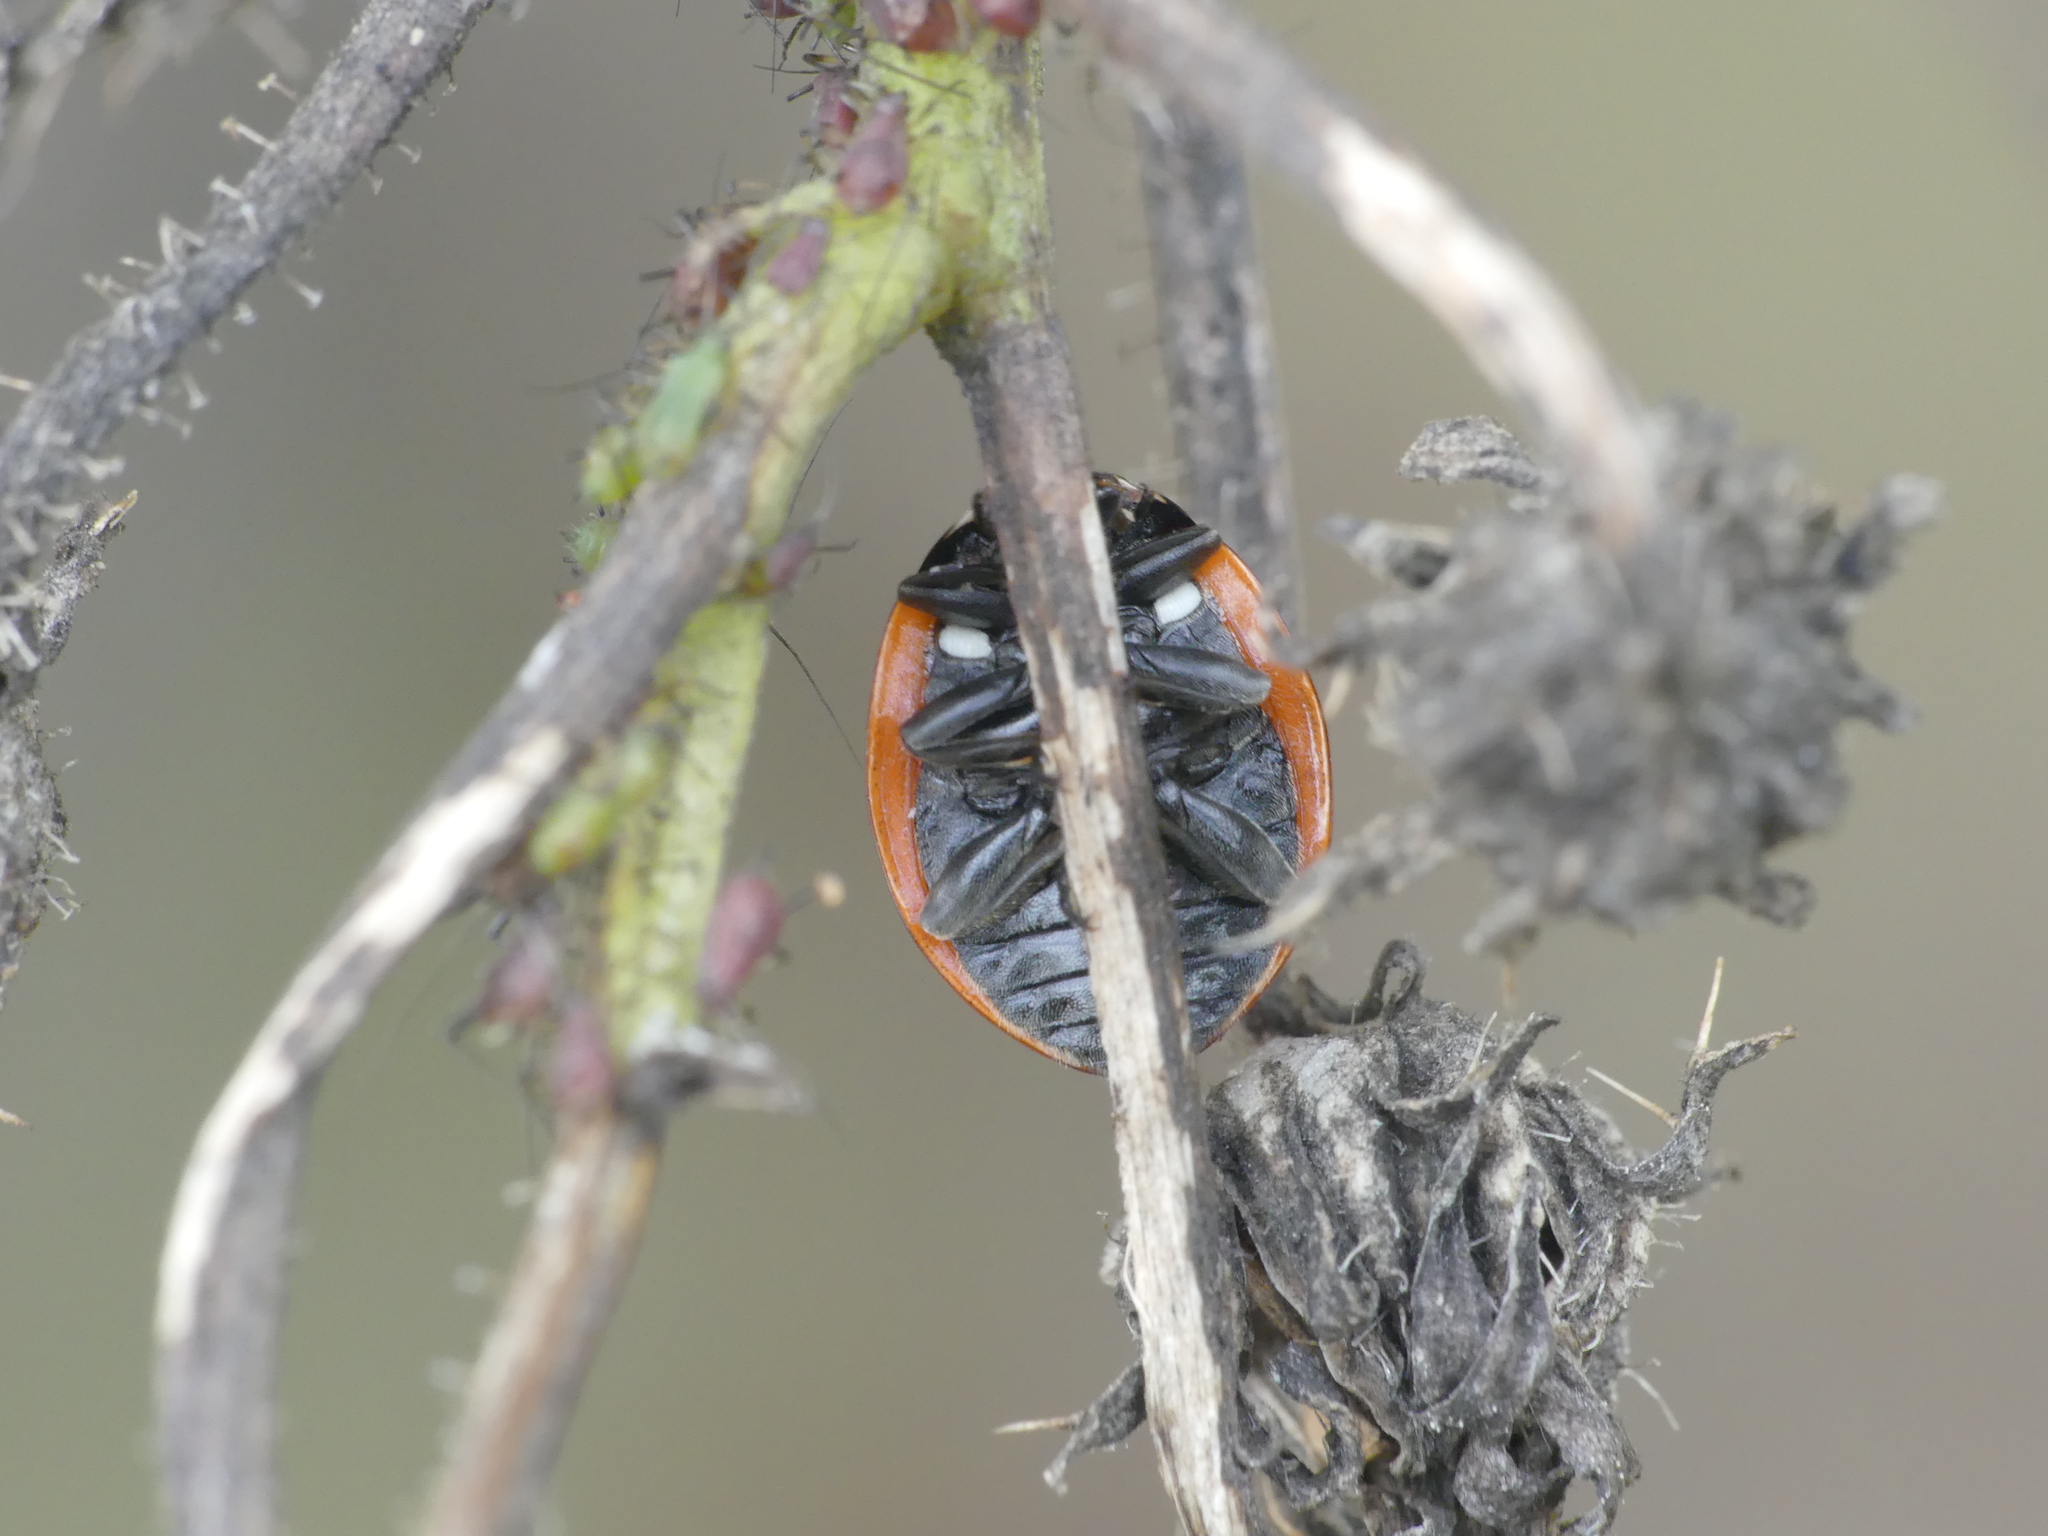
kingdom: Animalia
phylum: Arthropoda
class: Insecta
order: Coleoptera
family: Coccinellidae
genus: Coccinella
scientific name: Coccinella septempunctata
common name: Sevenspotted lady beetle
